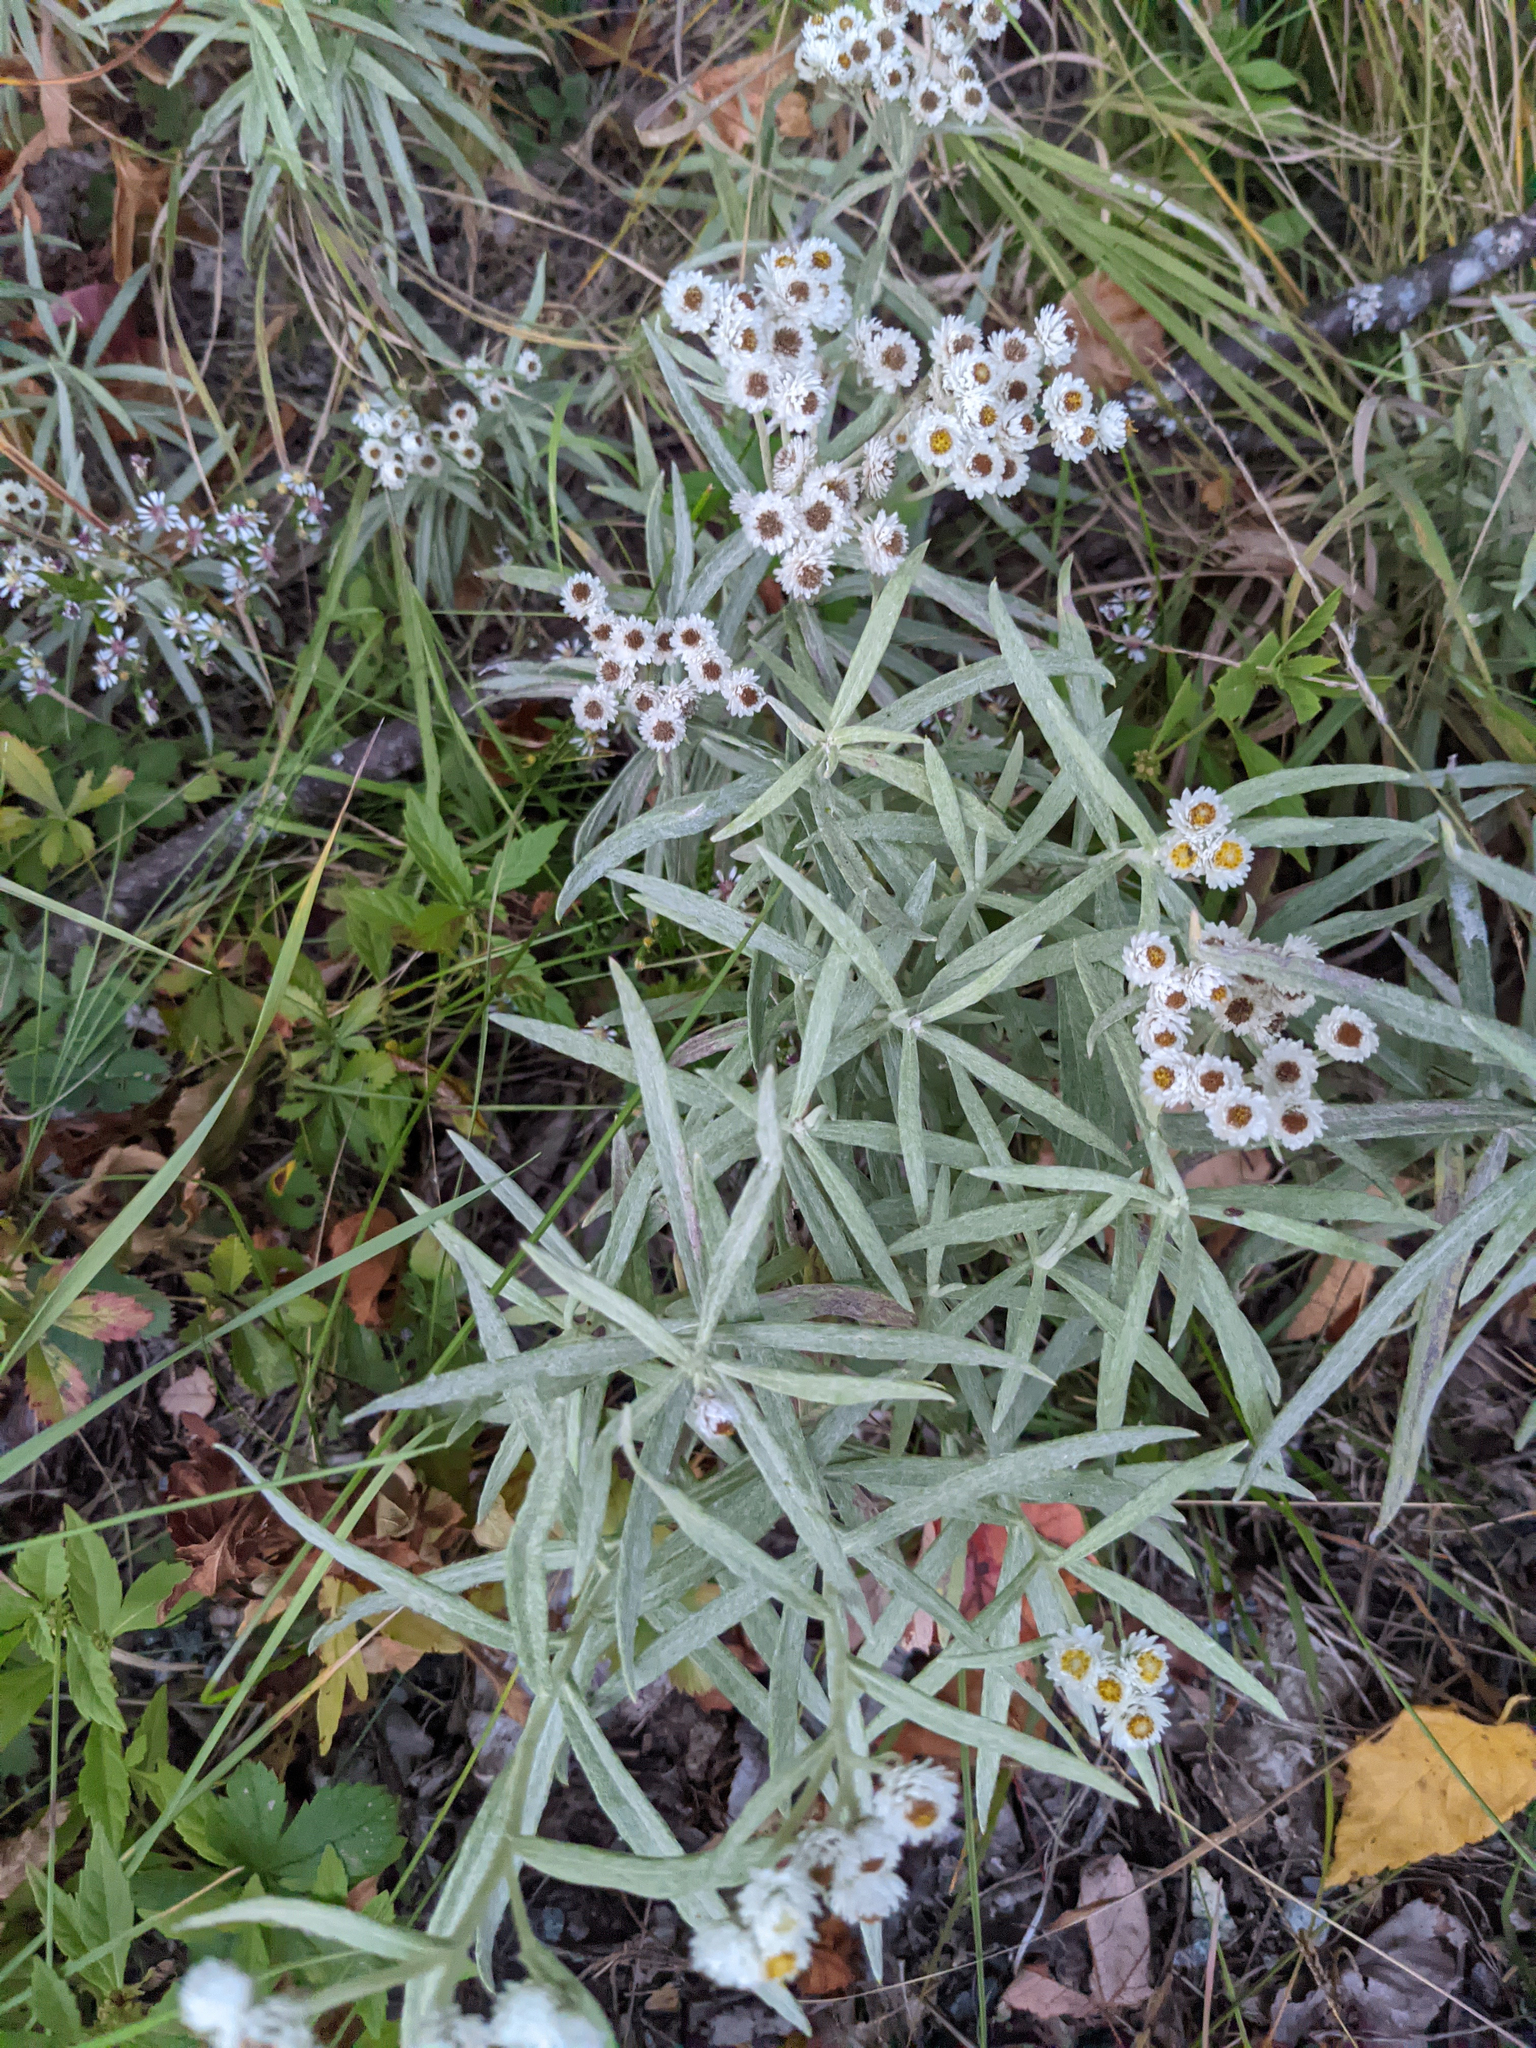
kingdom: Plantae
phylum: Tracheophyta
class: Magnoliopsida
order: Asterales
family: Asteraceae
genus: Anaphalis
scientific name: Anaphalis margaritacea
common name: Pearly everlasting
